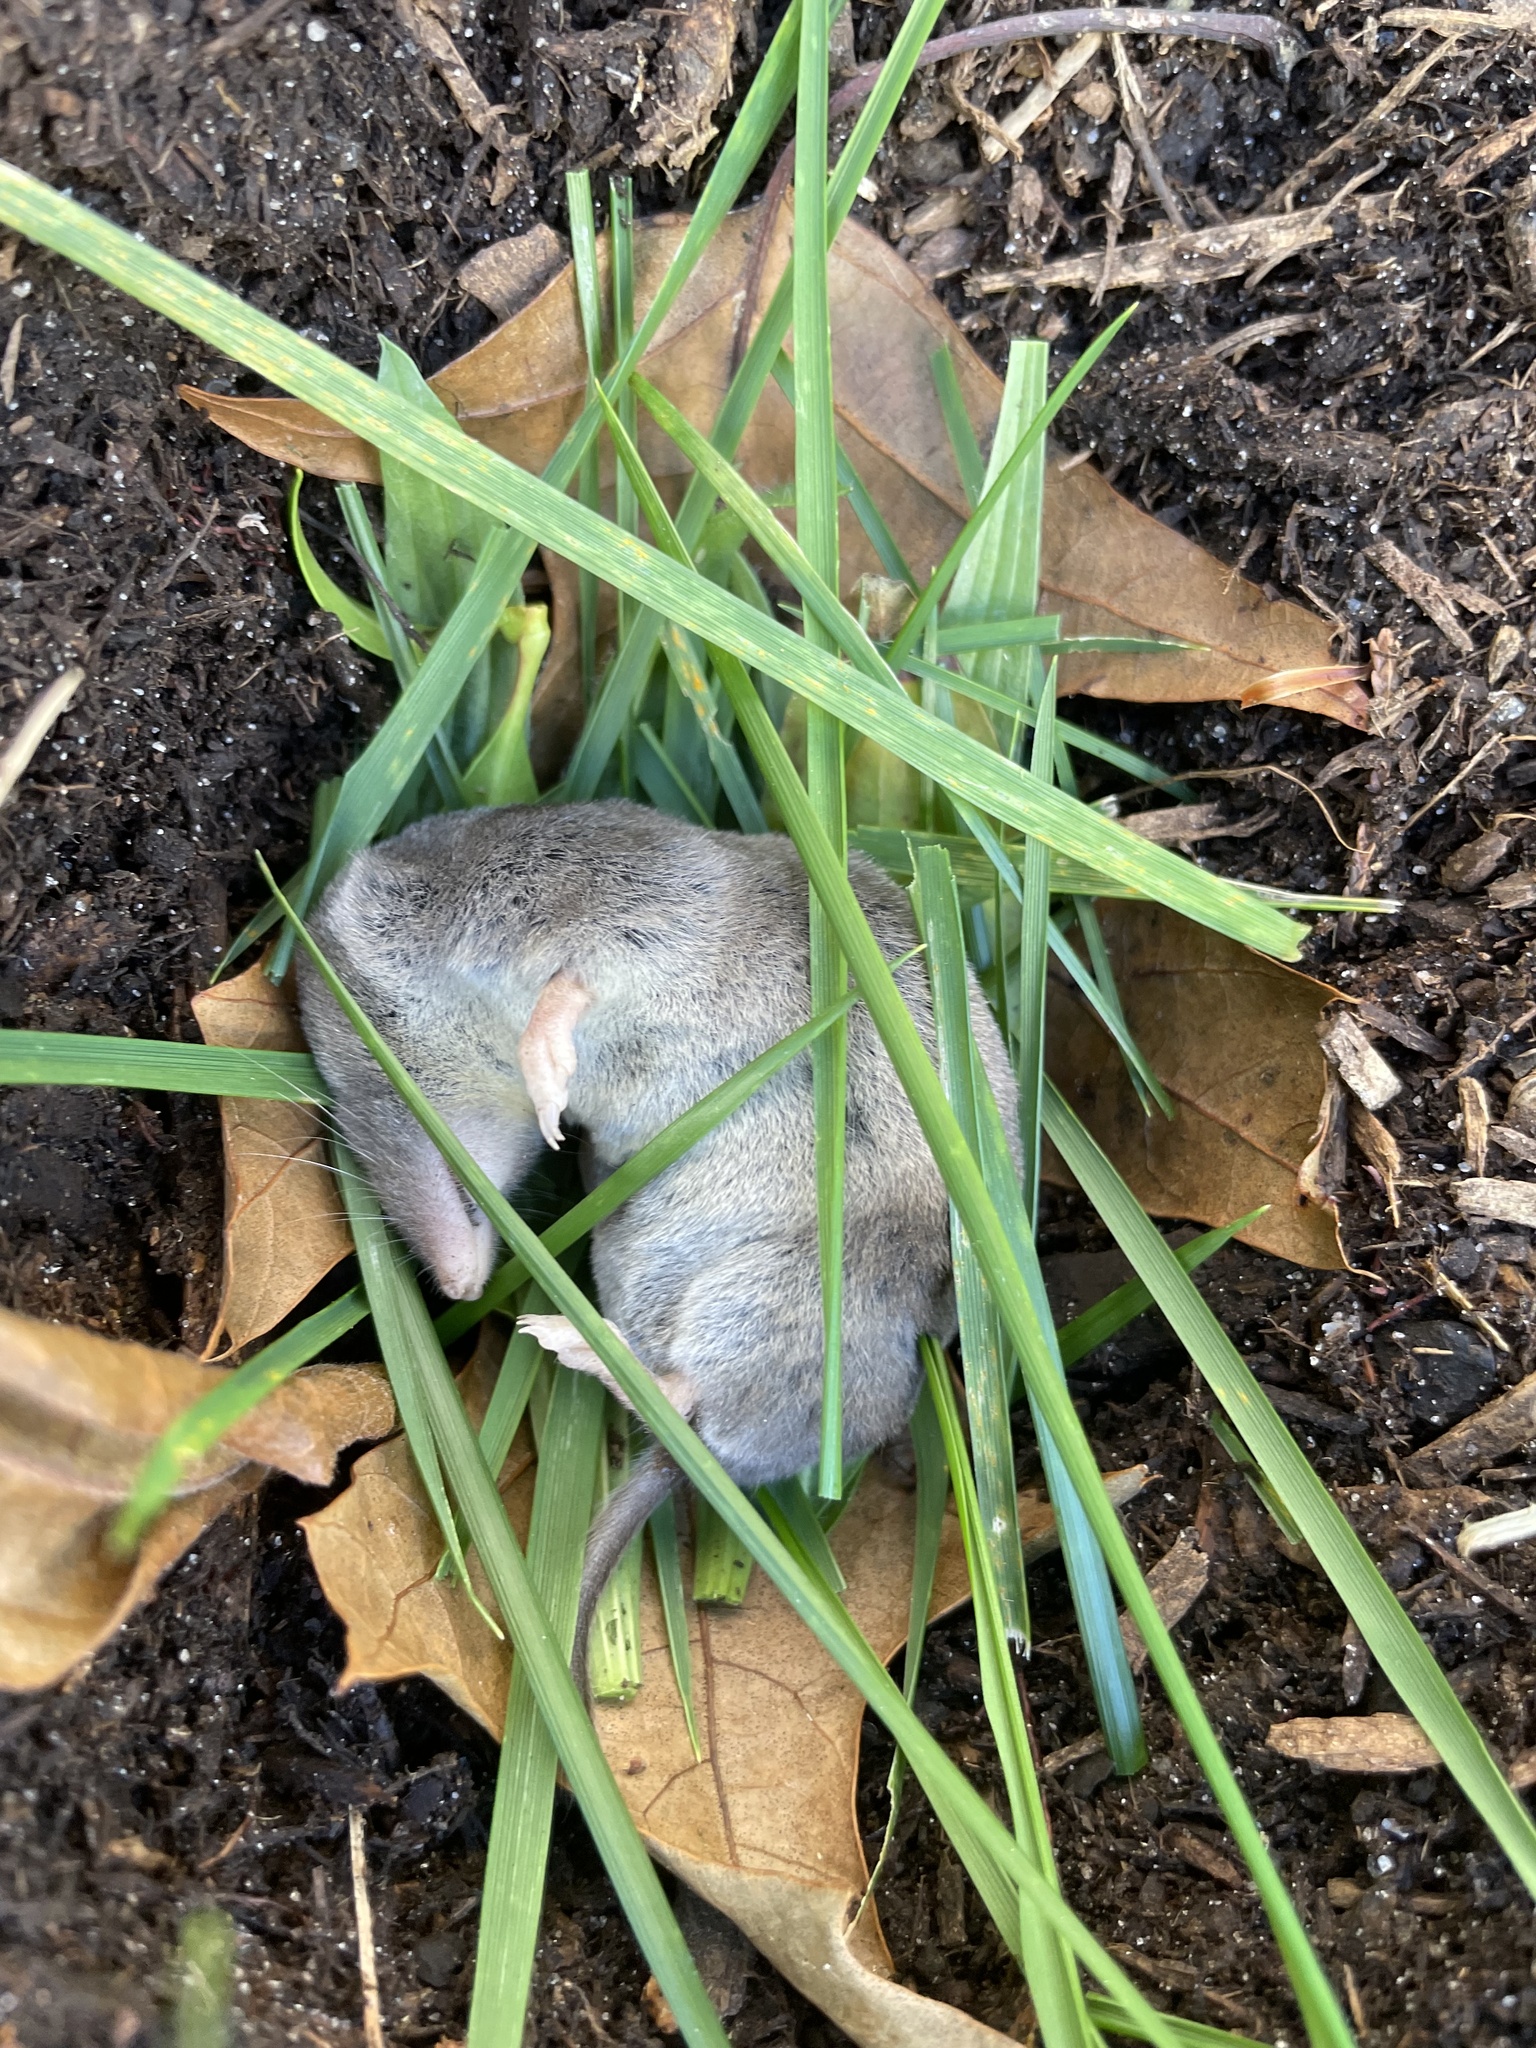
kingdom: Animalia
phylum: Chordata
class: Mammalia
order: Soricomorpha
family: Soricidae
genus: Blarina
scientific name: Blarina brevicauda
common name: Northern short-tailed shrew
